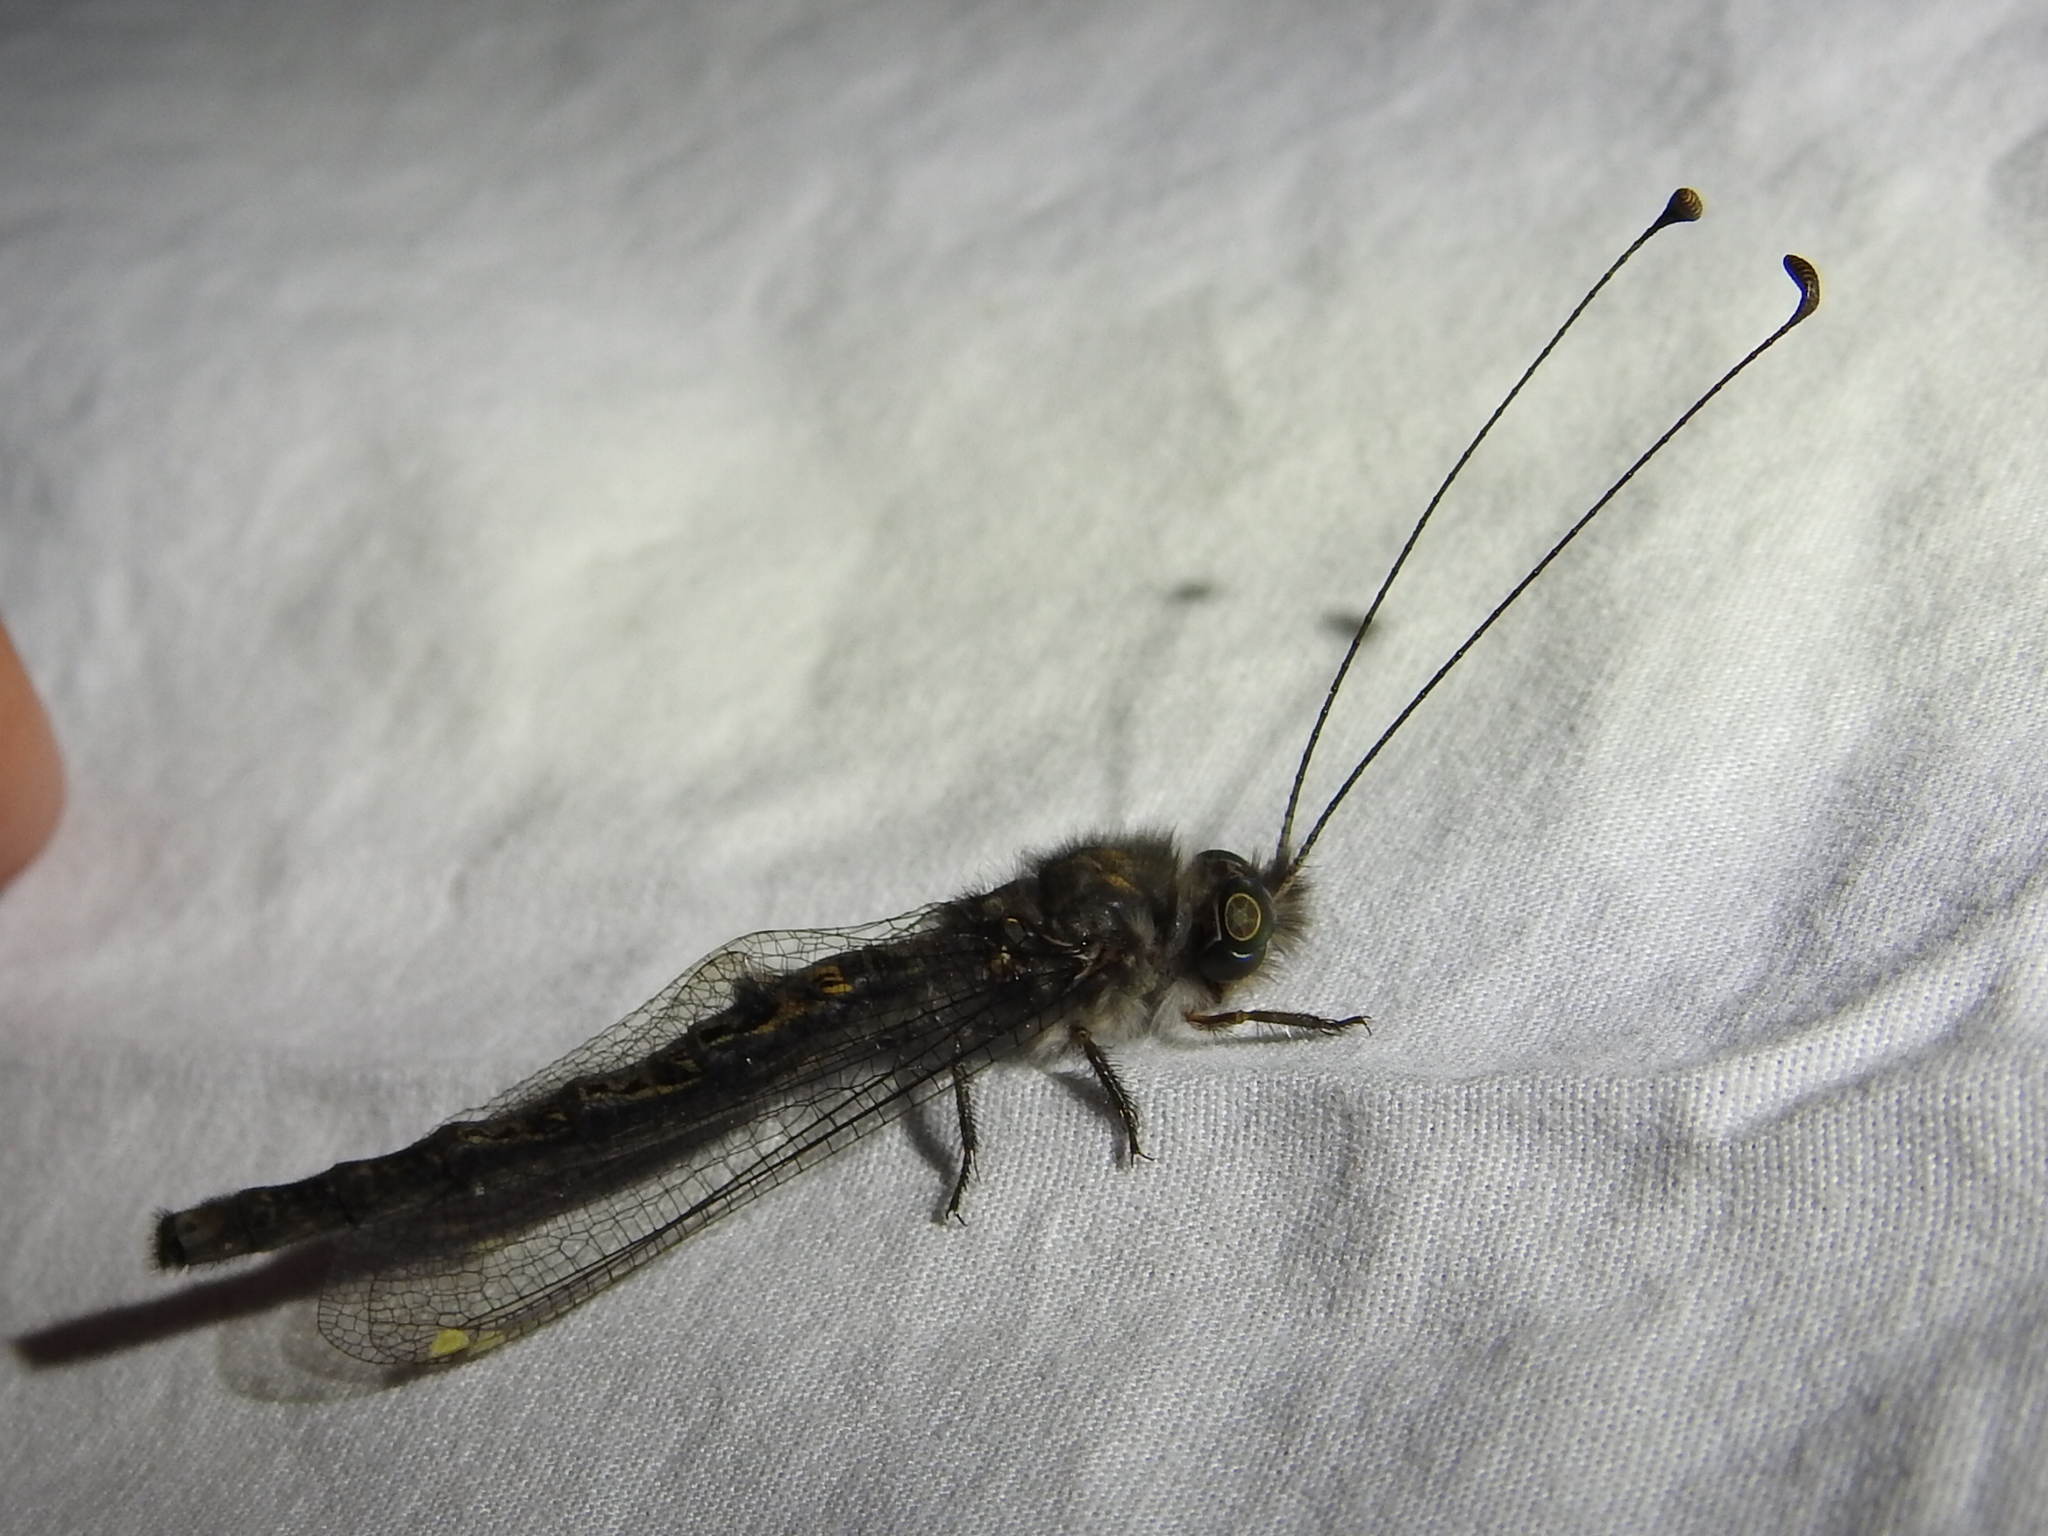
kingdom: Animalia
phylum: Arthropoda
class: Insecta
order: Neuroptera
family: Ascalaphidae
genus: Ululodes
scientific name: Ululodes quadripunctatus
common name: Four-spotted owlfly
